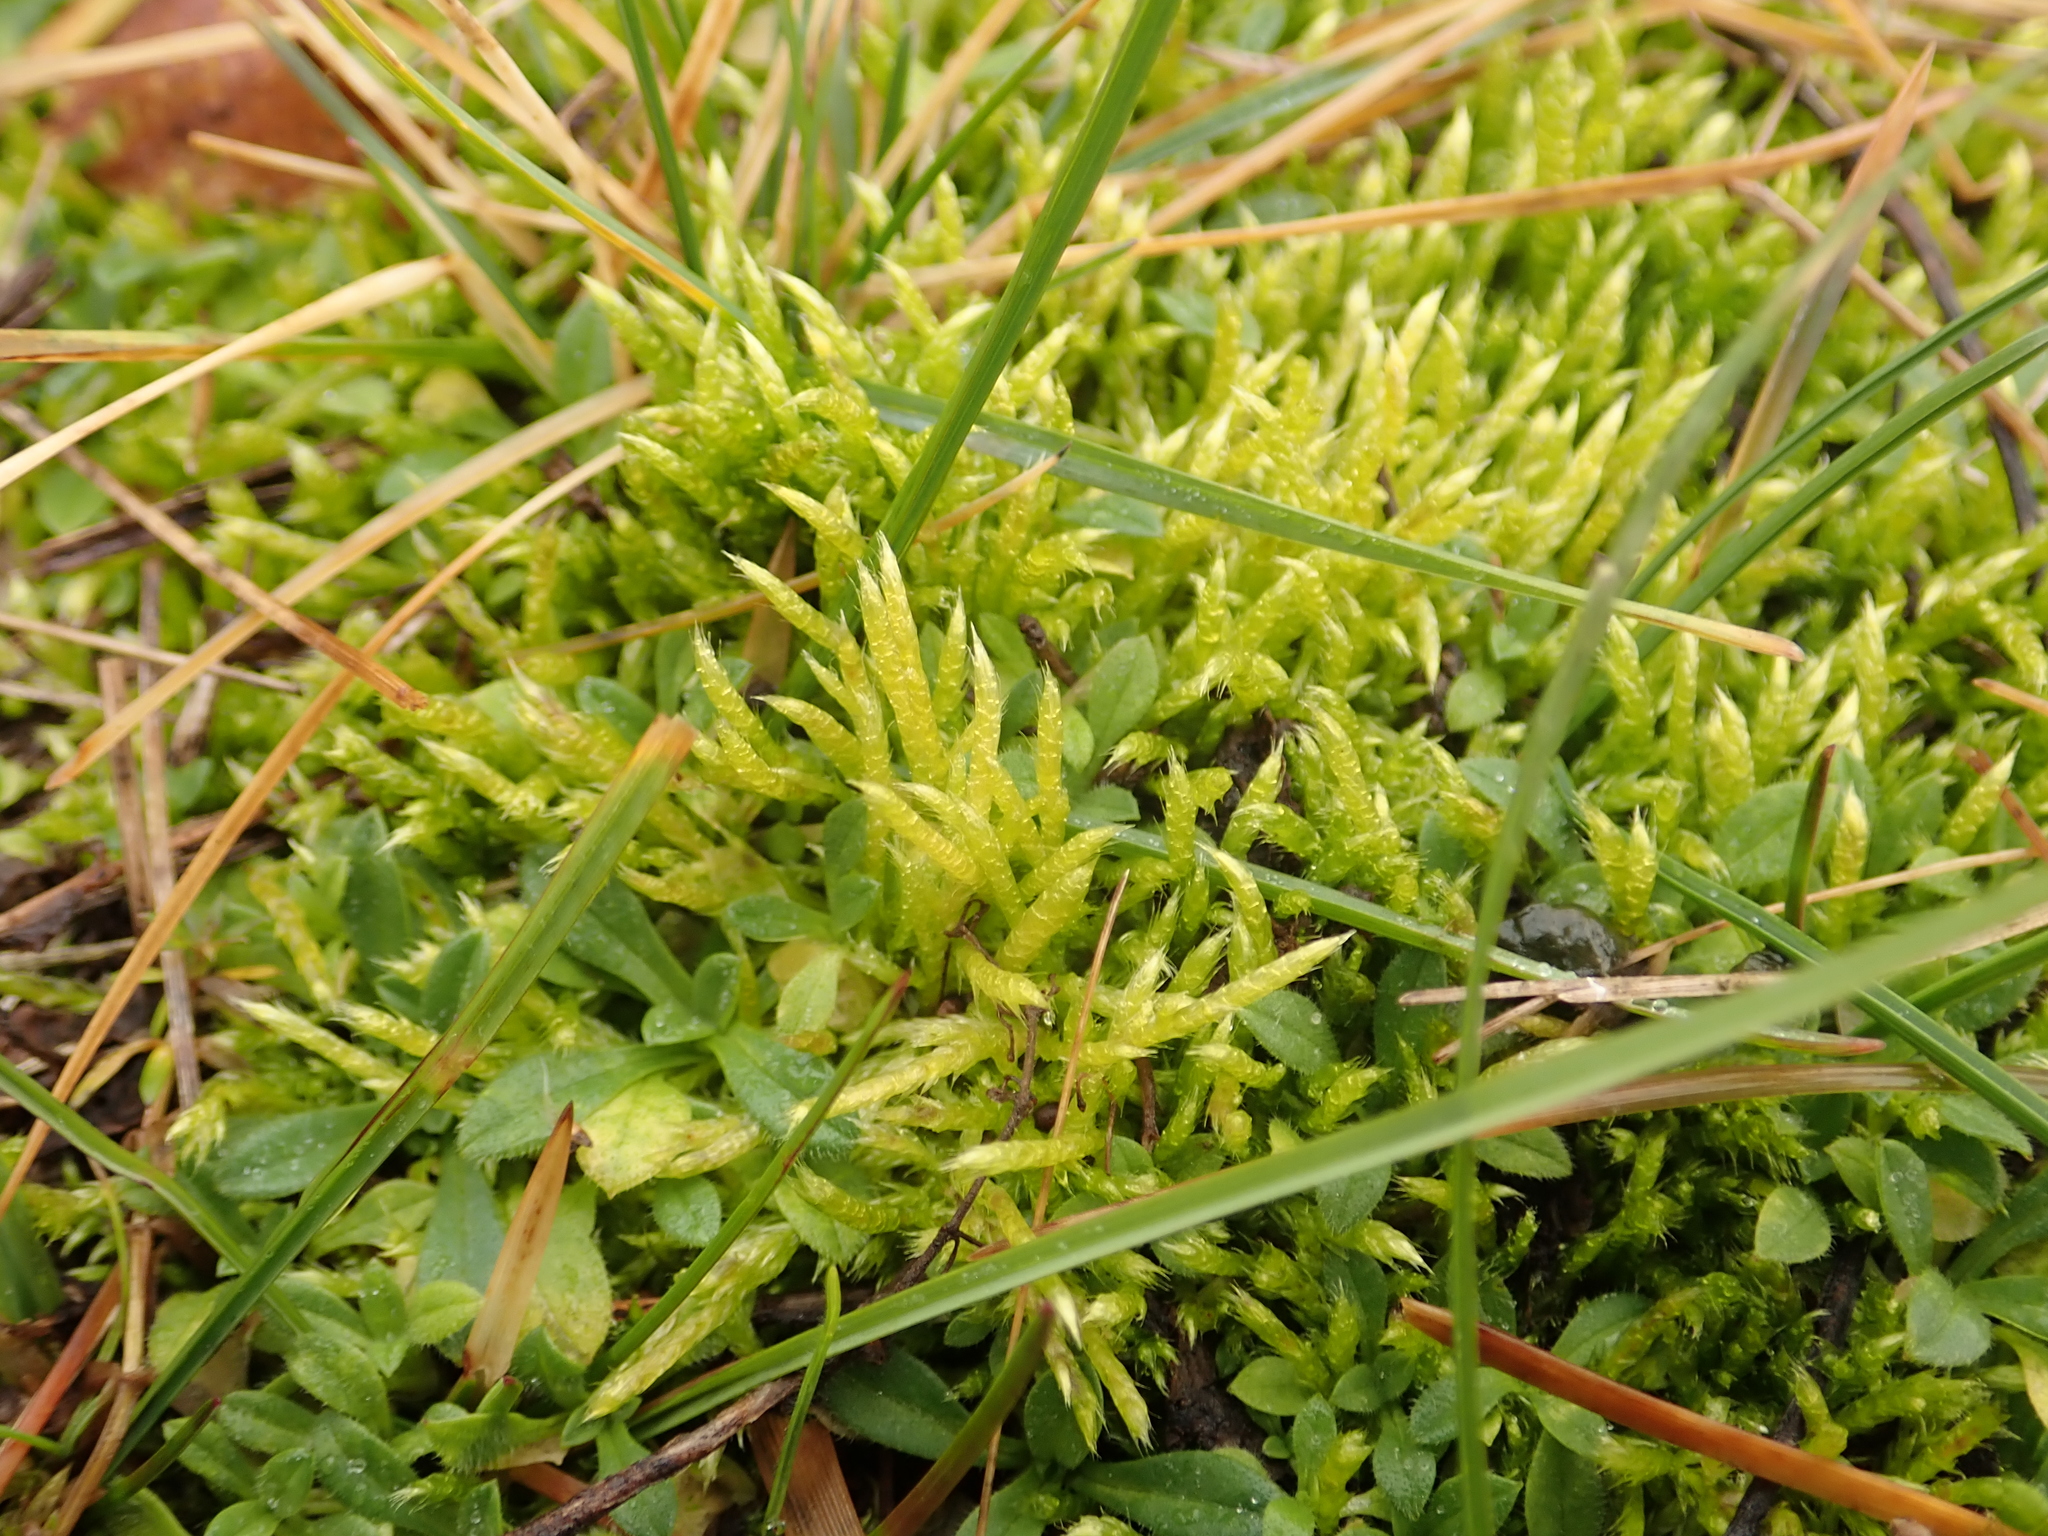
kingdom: Plantae
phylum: Bryophyta
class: Bryopsida
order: Hypnales
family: Brachytheciaceae
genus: Brachythecium
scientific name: Brachythecium albicans
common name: Whitish ragged moss
